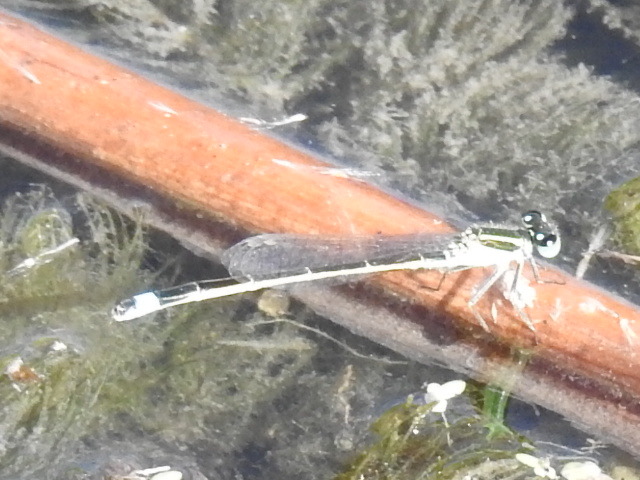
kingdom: Animalia
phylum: Arthropoda
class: Insecta
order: Odonata
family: Coenagrionidae
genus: Ischnura
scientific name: Ischnura ramburii
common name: Rambur's forktail
